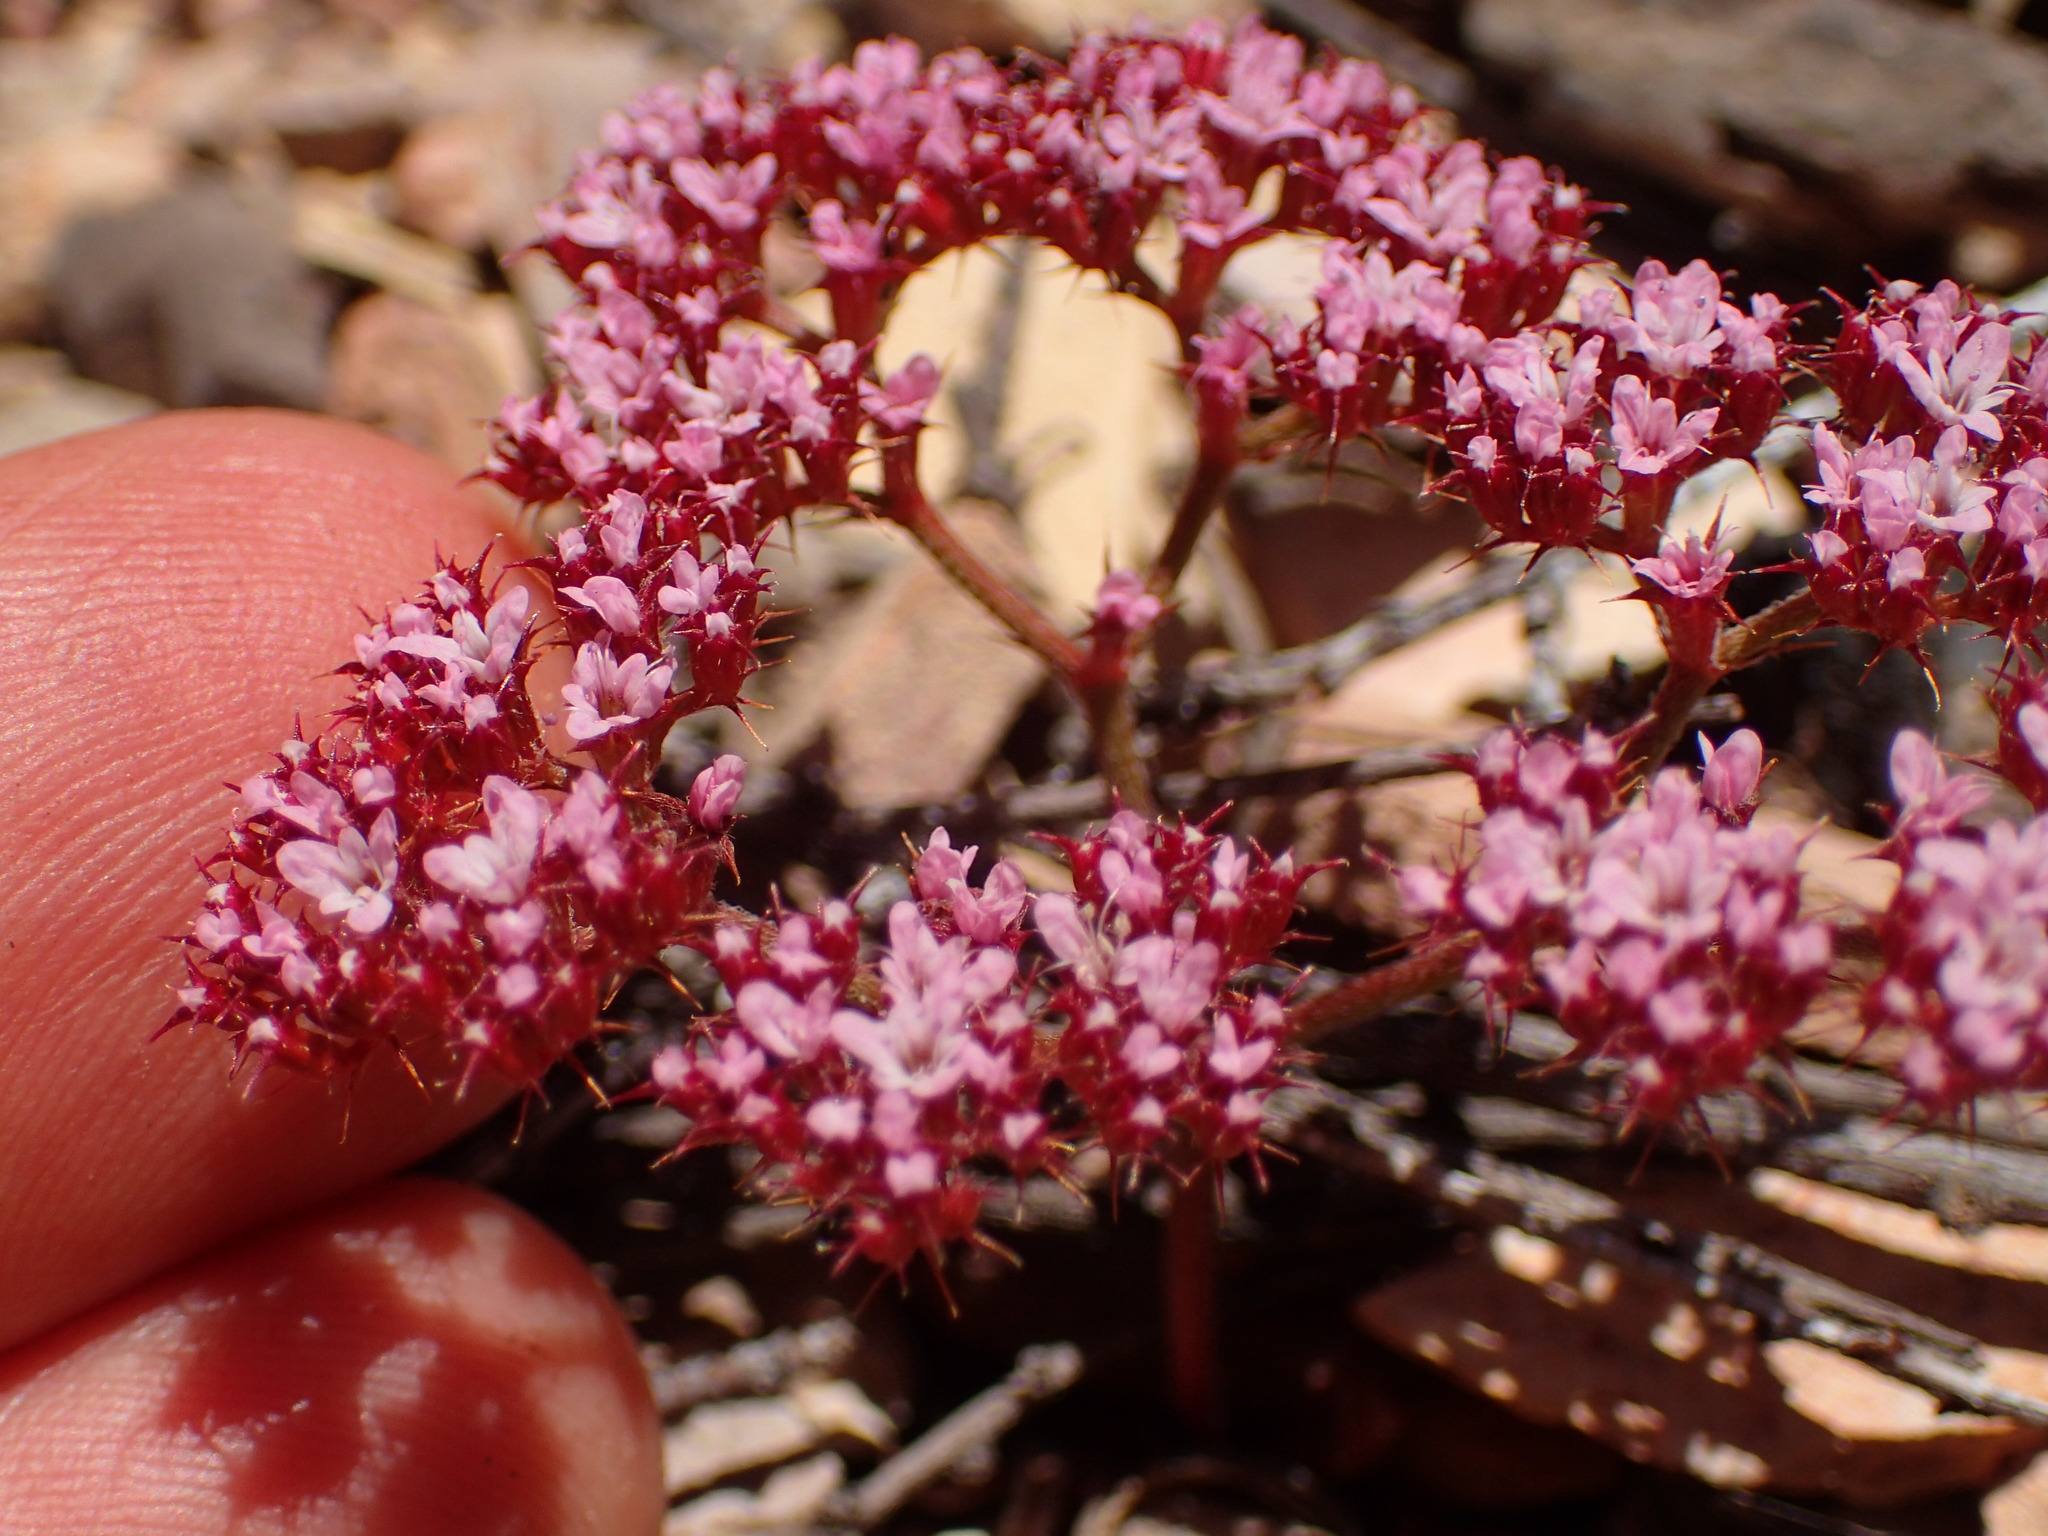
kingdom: Plantae
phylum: Tracheophyta
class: Magnoliopsida
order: Caryophyllales
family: Polygonaceae
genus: Chorizanthe
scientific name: Chorizanthe staticoides
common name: Turkish rugging
